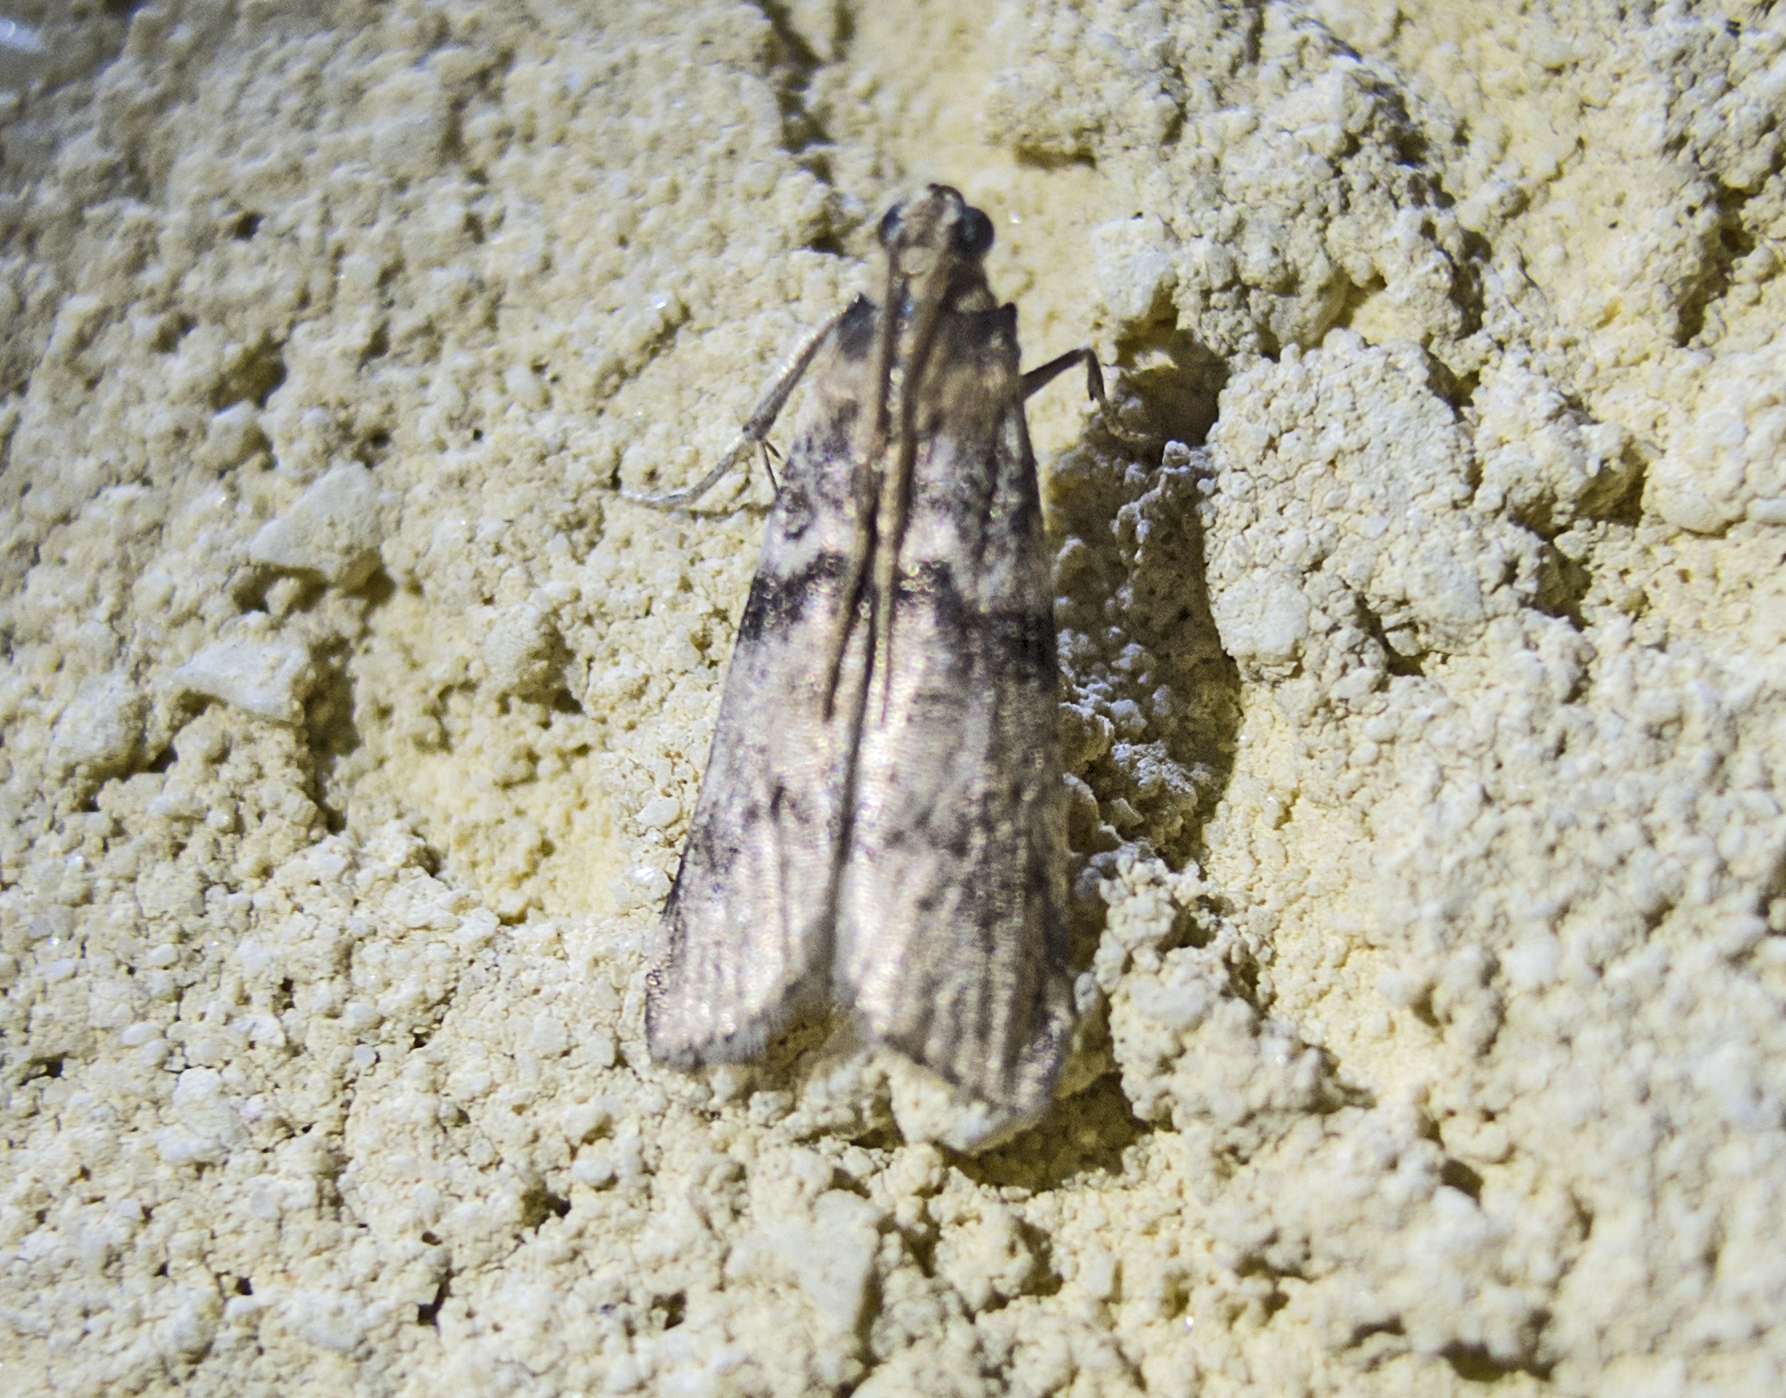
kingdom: Animalia
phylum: Arthropoda
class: Insecta
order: Lepidoptera
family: Pyralidae
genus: Euzophera
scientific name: Euzophera pinguis
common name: Ash-bark knot-horn
